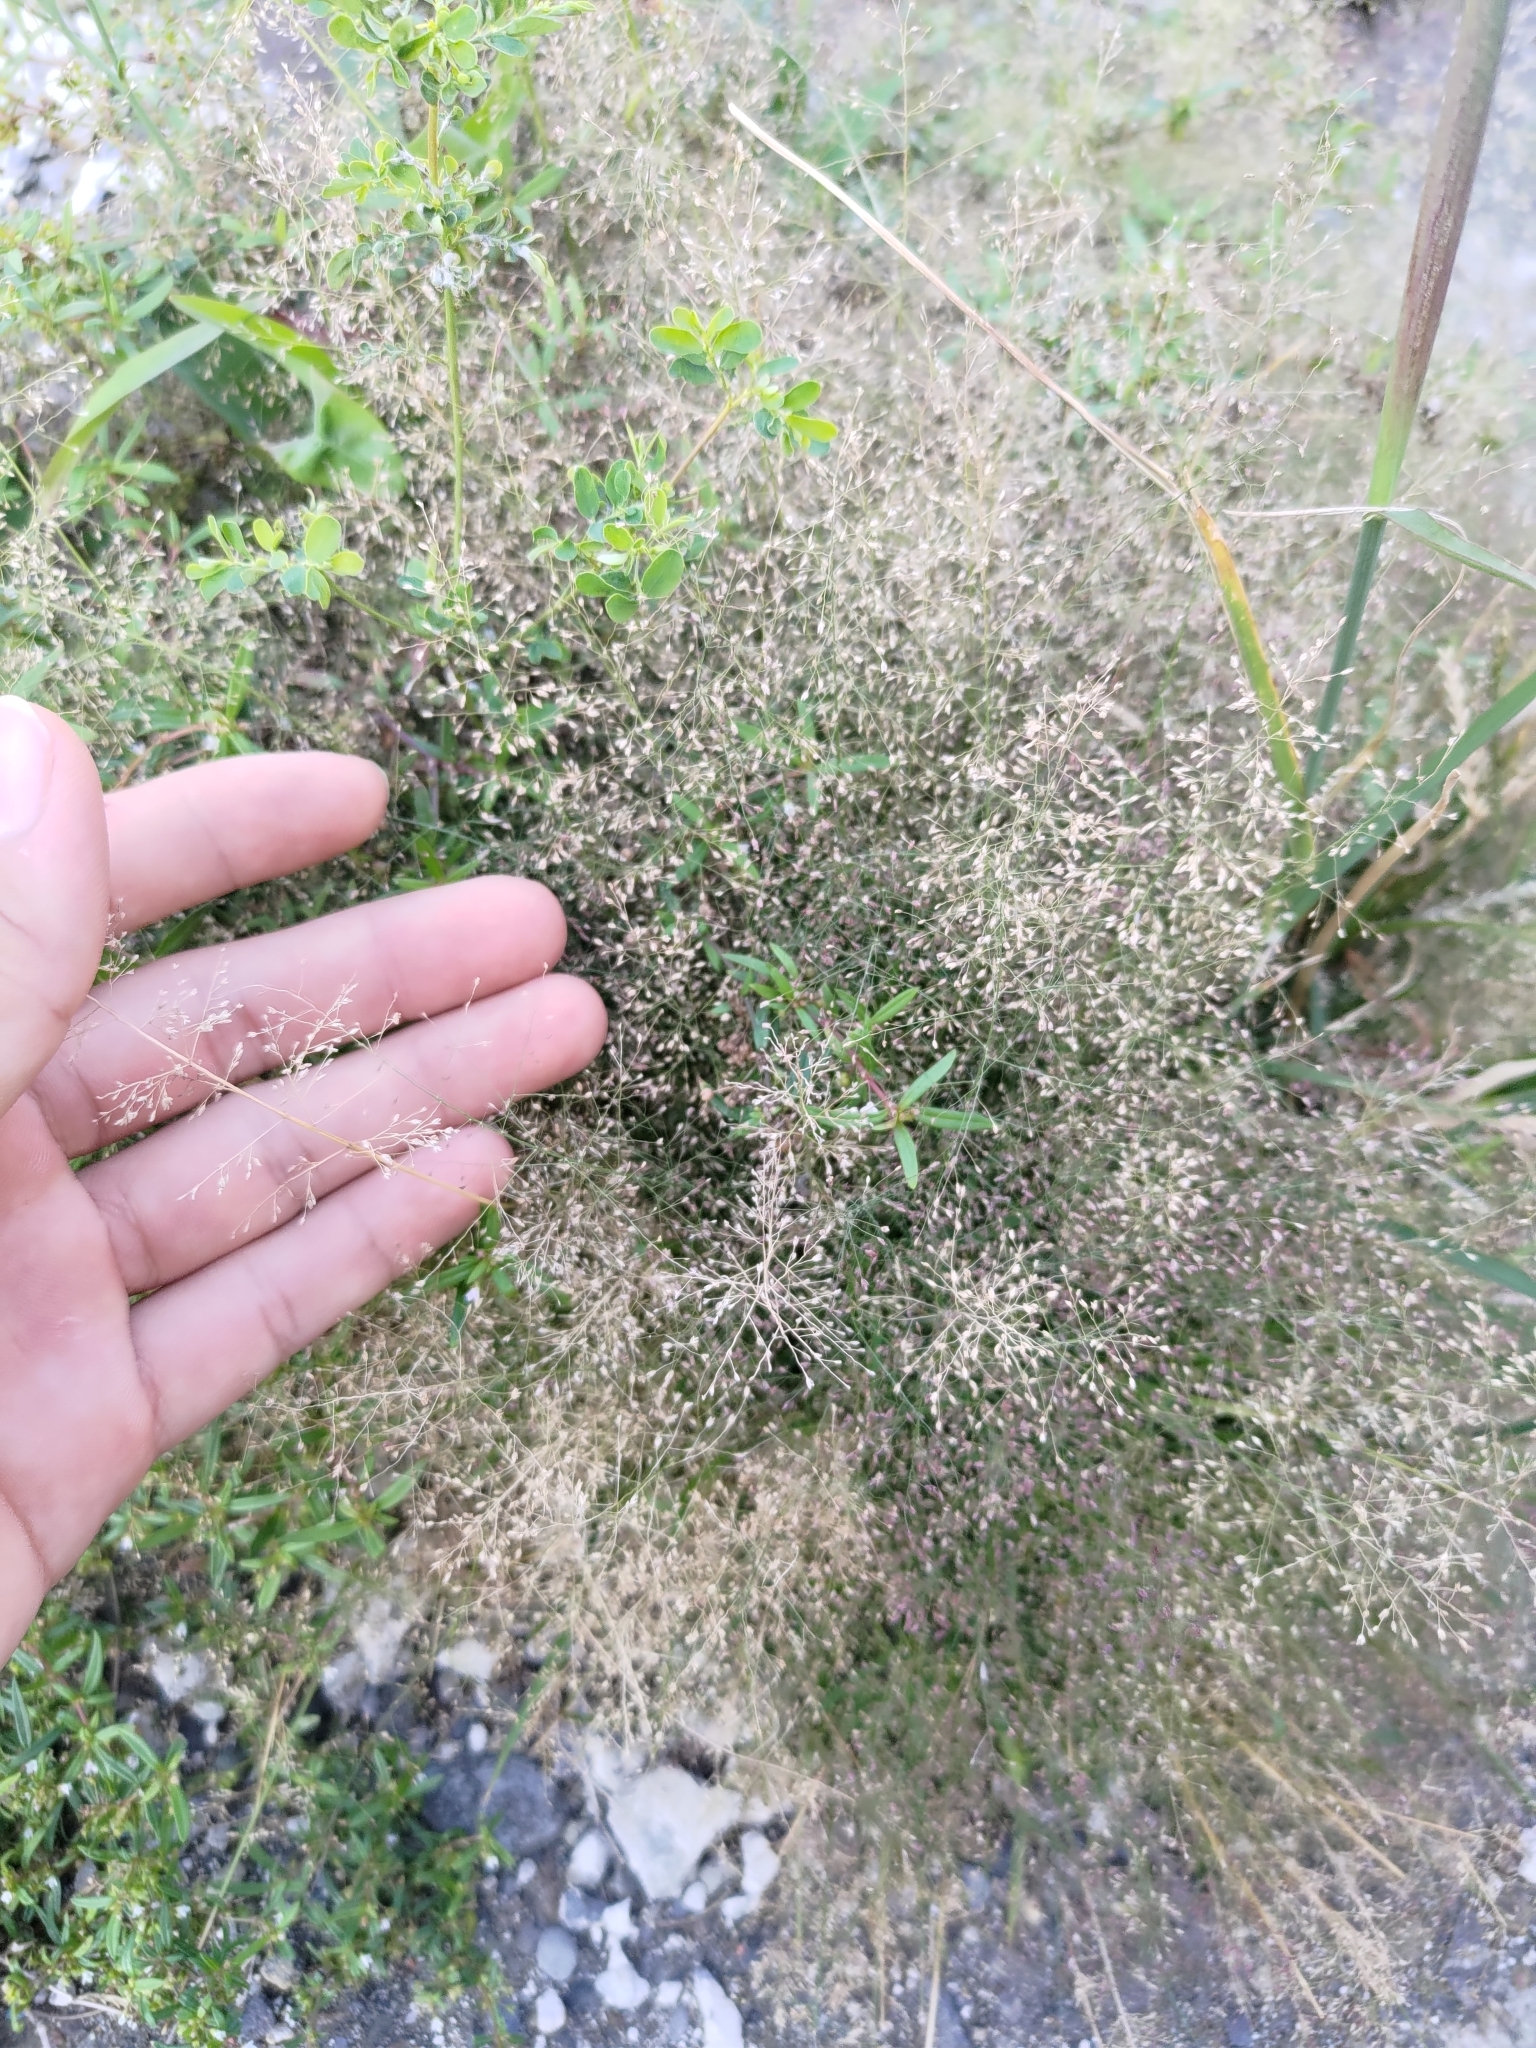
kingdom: Plantae
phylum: Tracheophyta
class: Liliopsida
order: Poales
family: Poaceae
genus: Eragrostis
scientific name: Eragrostis tenella
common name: Japanese lovegrass
